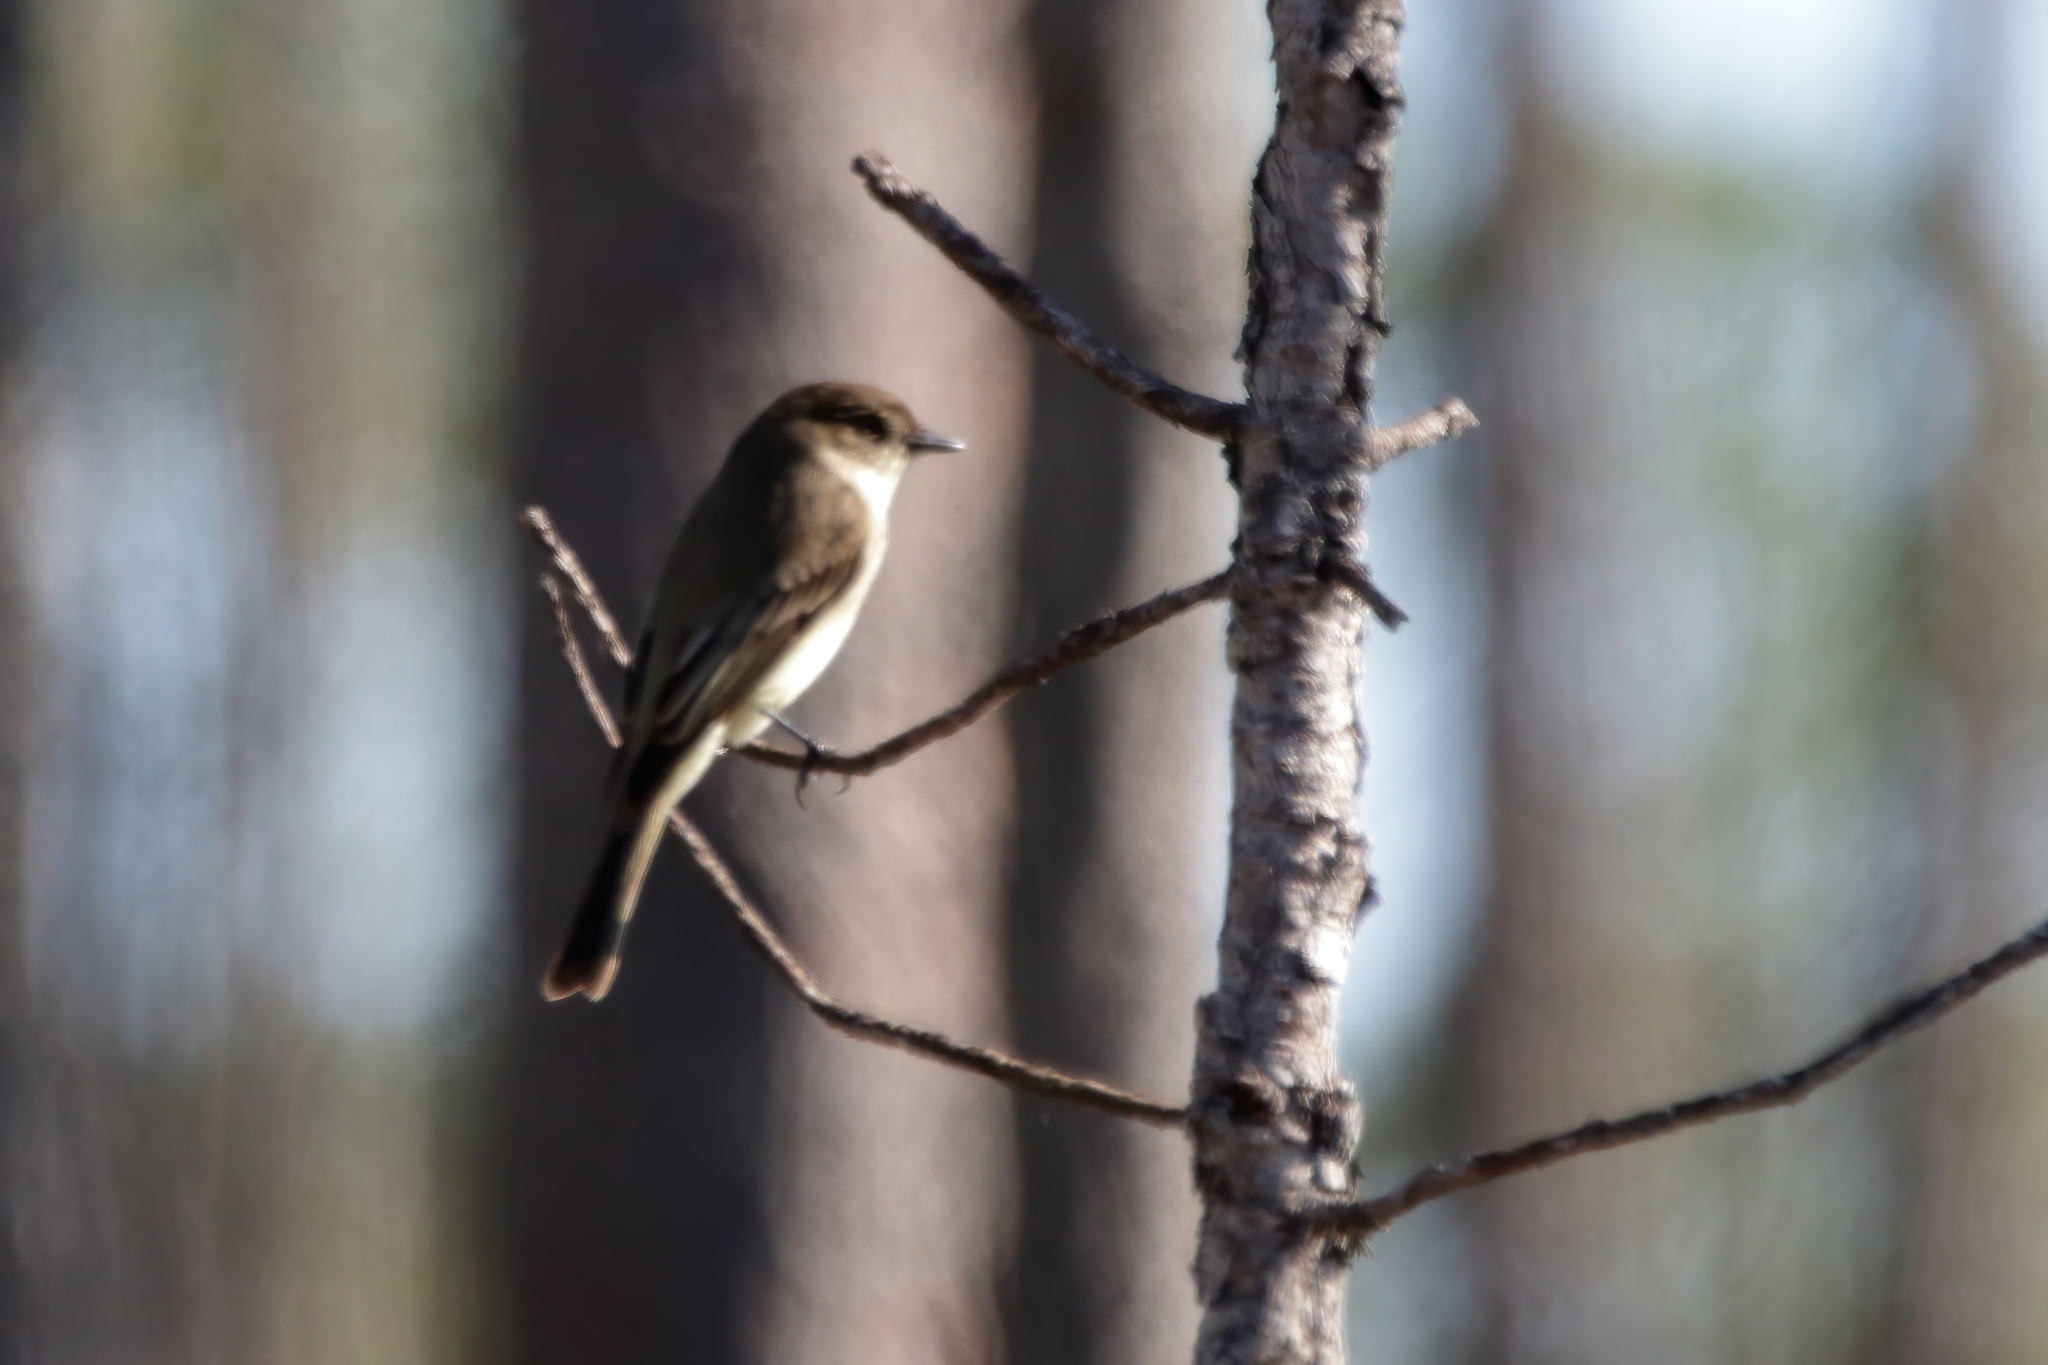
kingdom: Animalia
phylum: Chordata
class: Aves
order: Passeriformes
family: Tyrannidae
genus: Sayornis
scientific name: Sayornis phoebe
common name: Eastern phoebe
